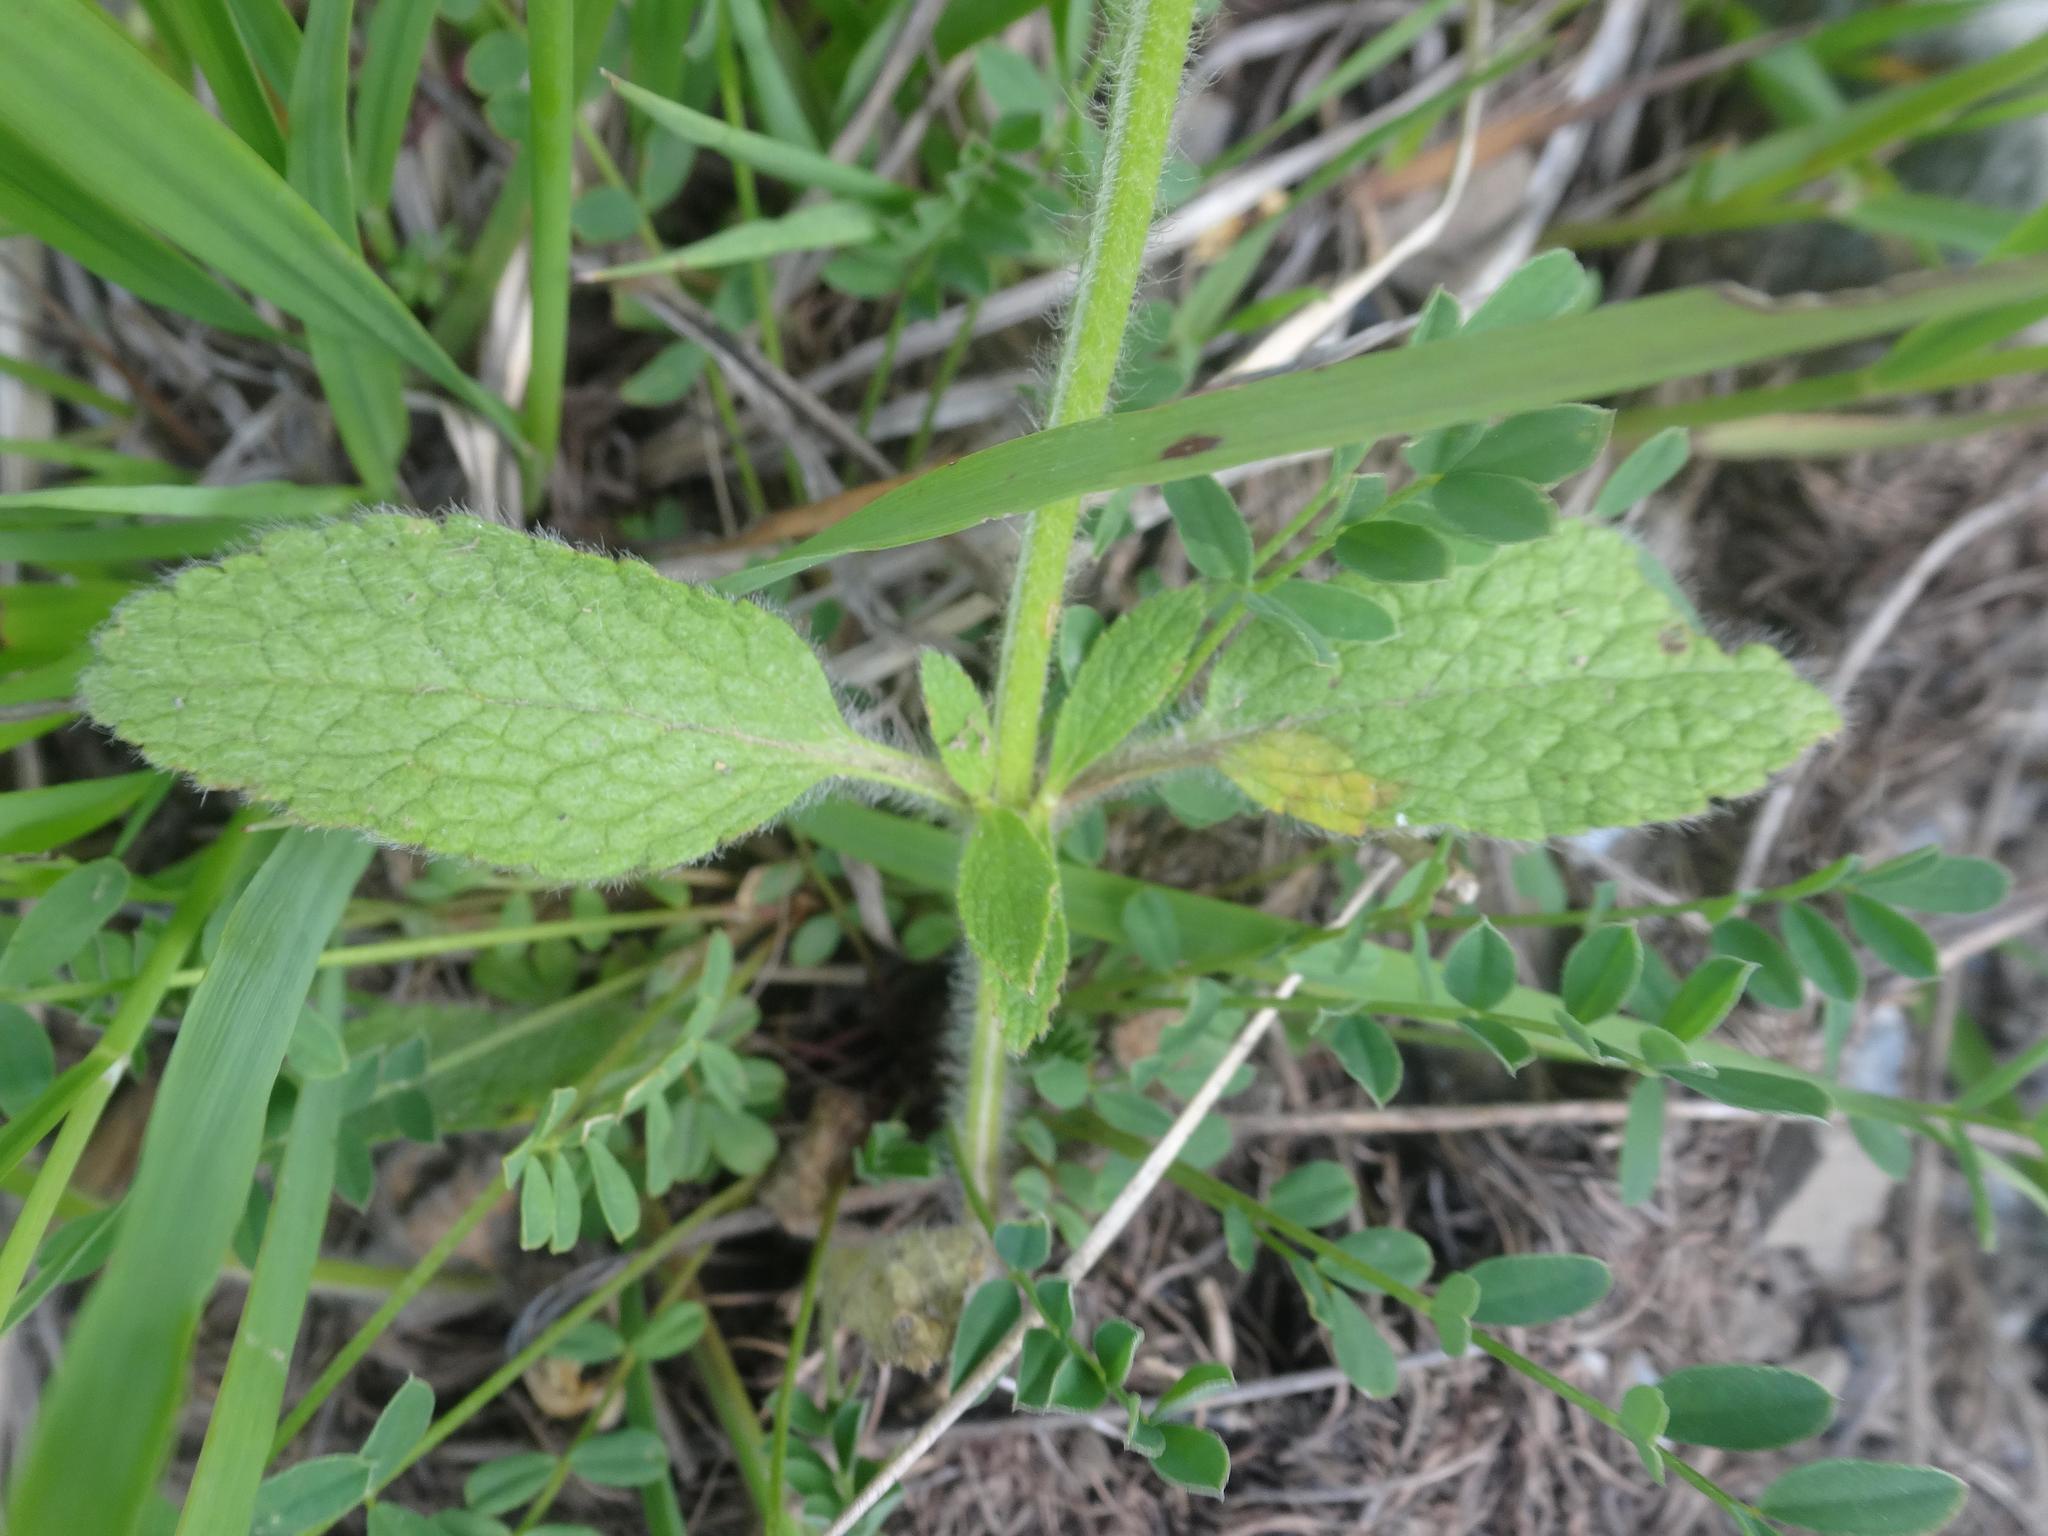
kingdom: Plantae
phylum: Tracheophyta
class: Magnoliopsida
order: Lamiales
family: Lamiaceae
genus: Stachys
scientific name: Stachys recta
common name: Perennial yellow-woundwort
